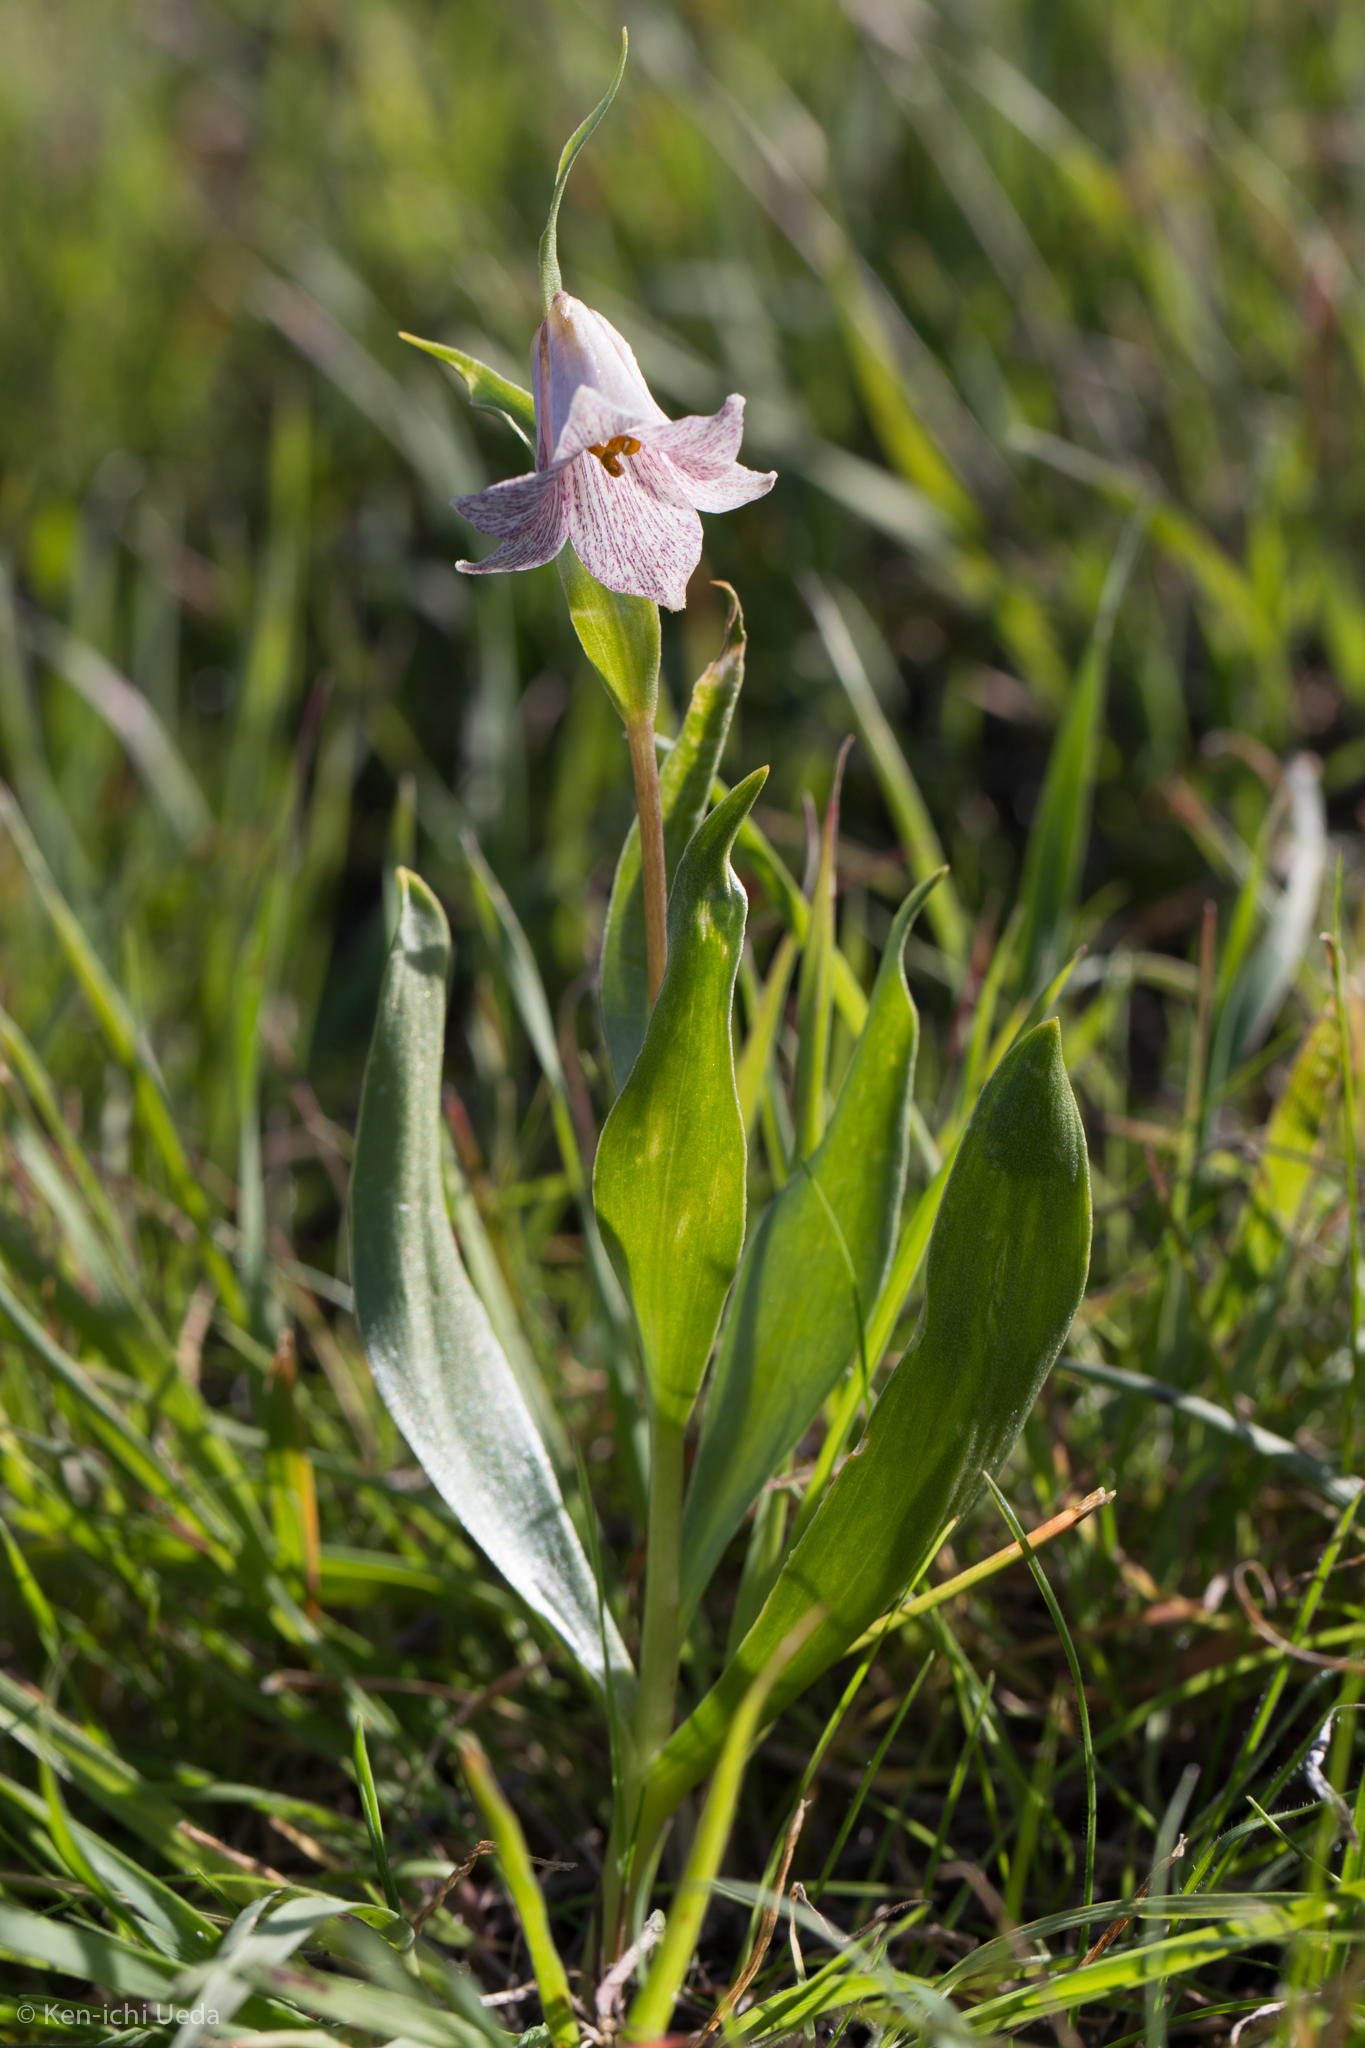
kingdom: Plantae
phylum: Tracheophyta
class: Liliopsida
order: Liliales
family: Liliaceae
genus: Fritillaria
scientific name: Fritillaria striata
